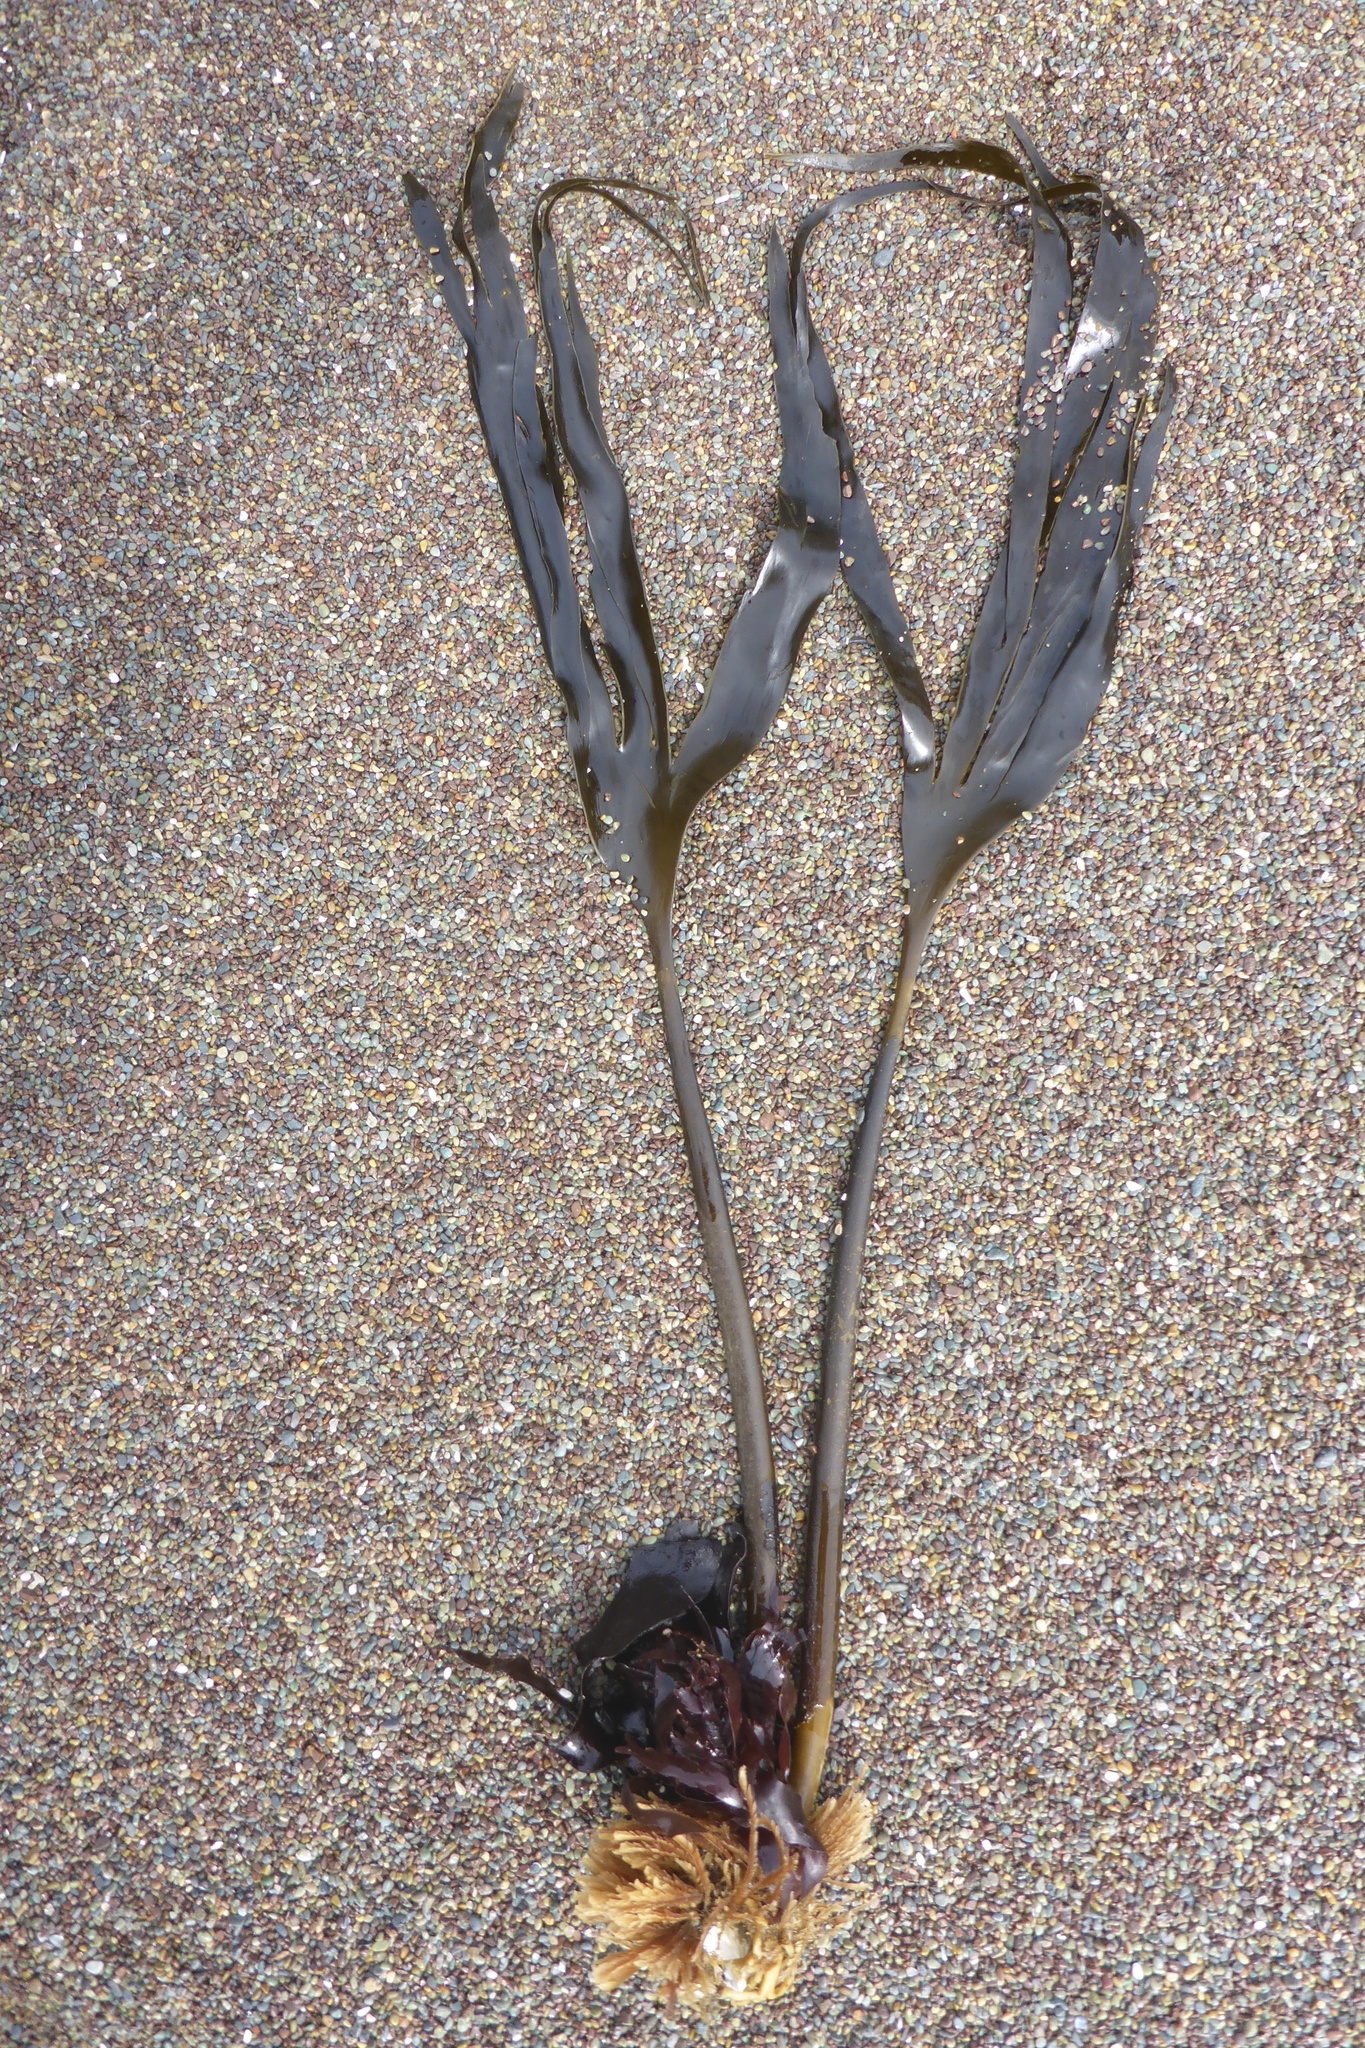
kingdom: Chromista
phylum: Ochrophyta
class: Phaeophyceae
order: Laminariales
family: Laminariaceae
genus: Laminaria
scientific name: Laminaria setchellii
